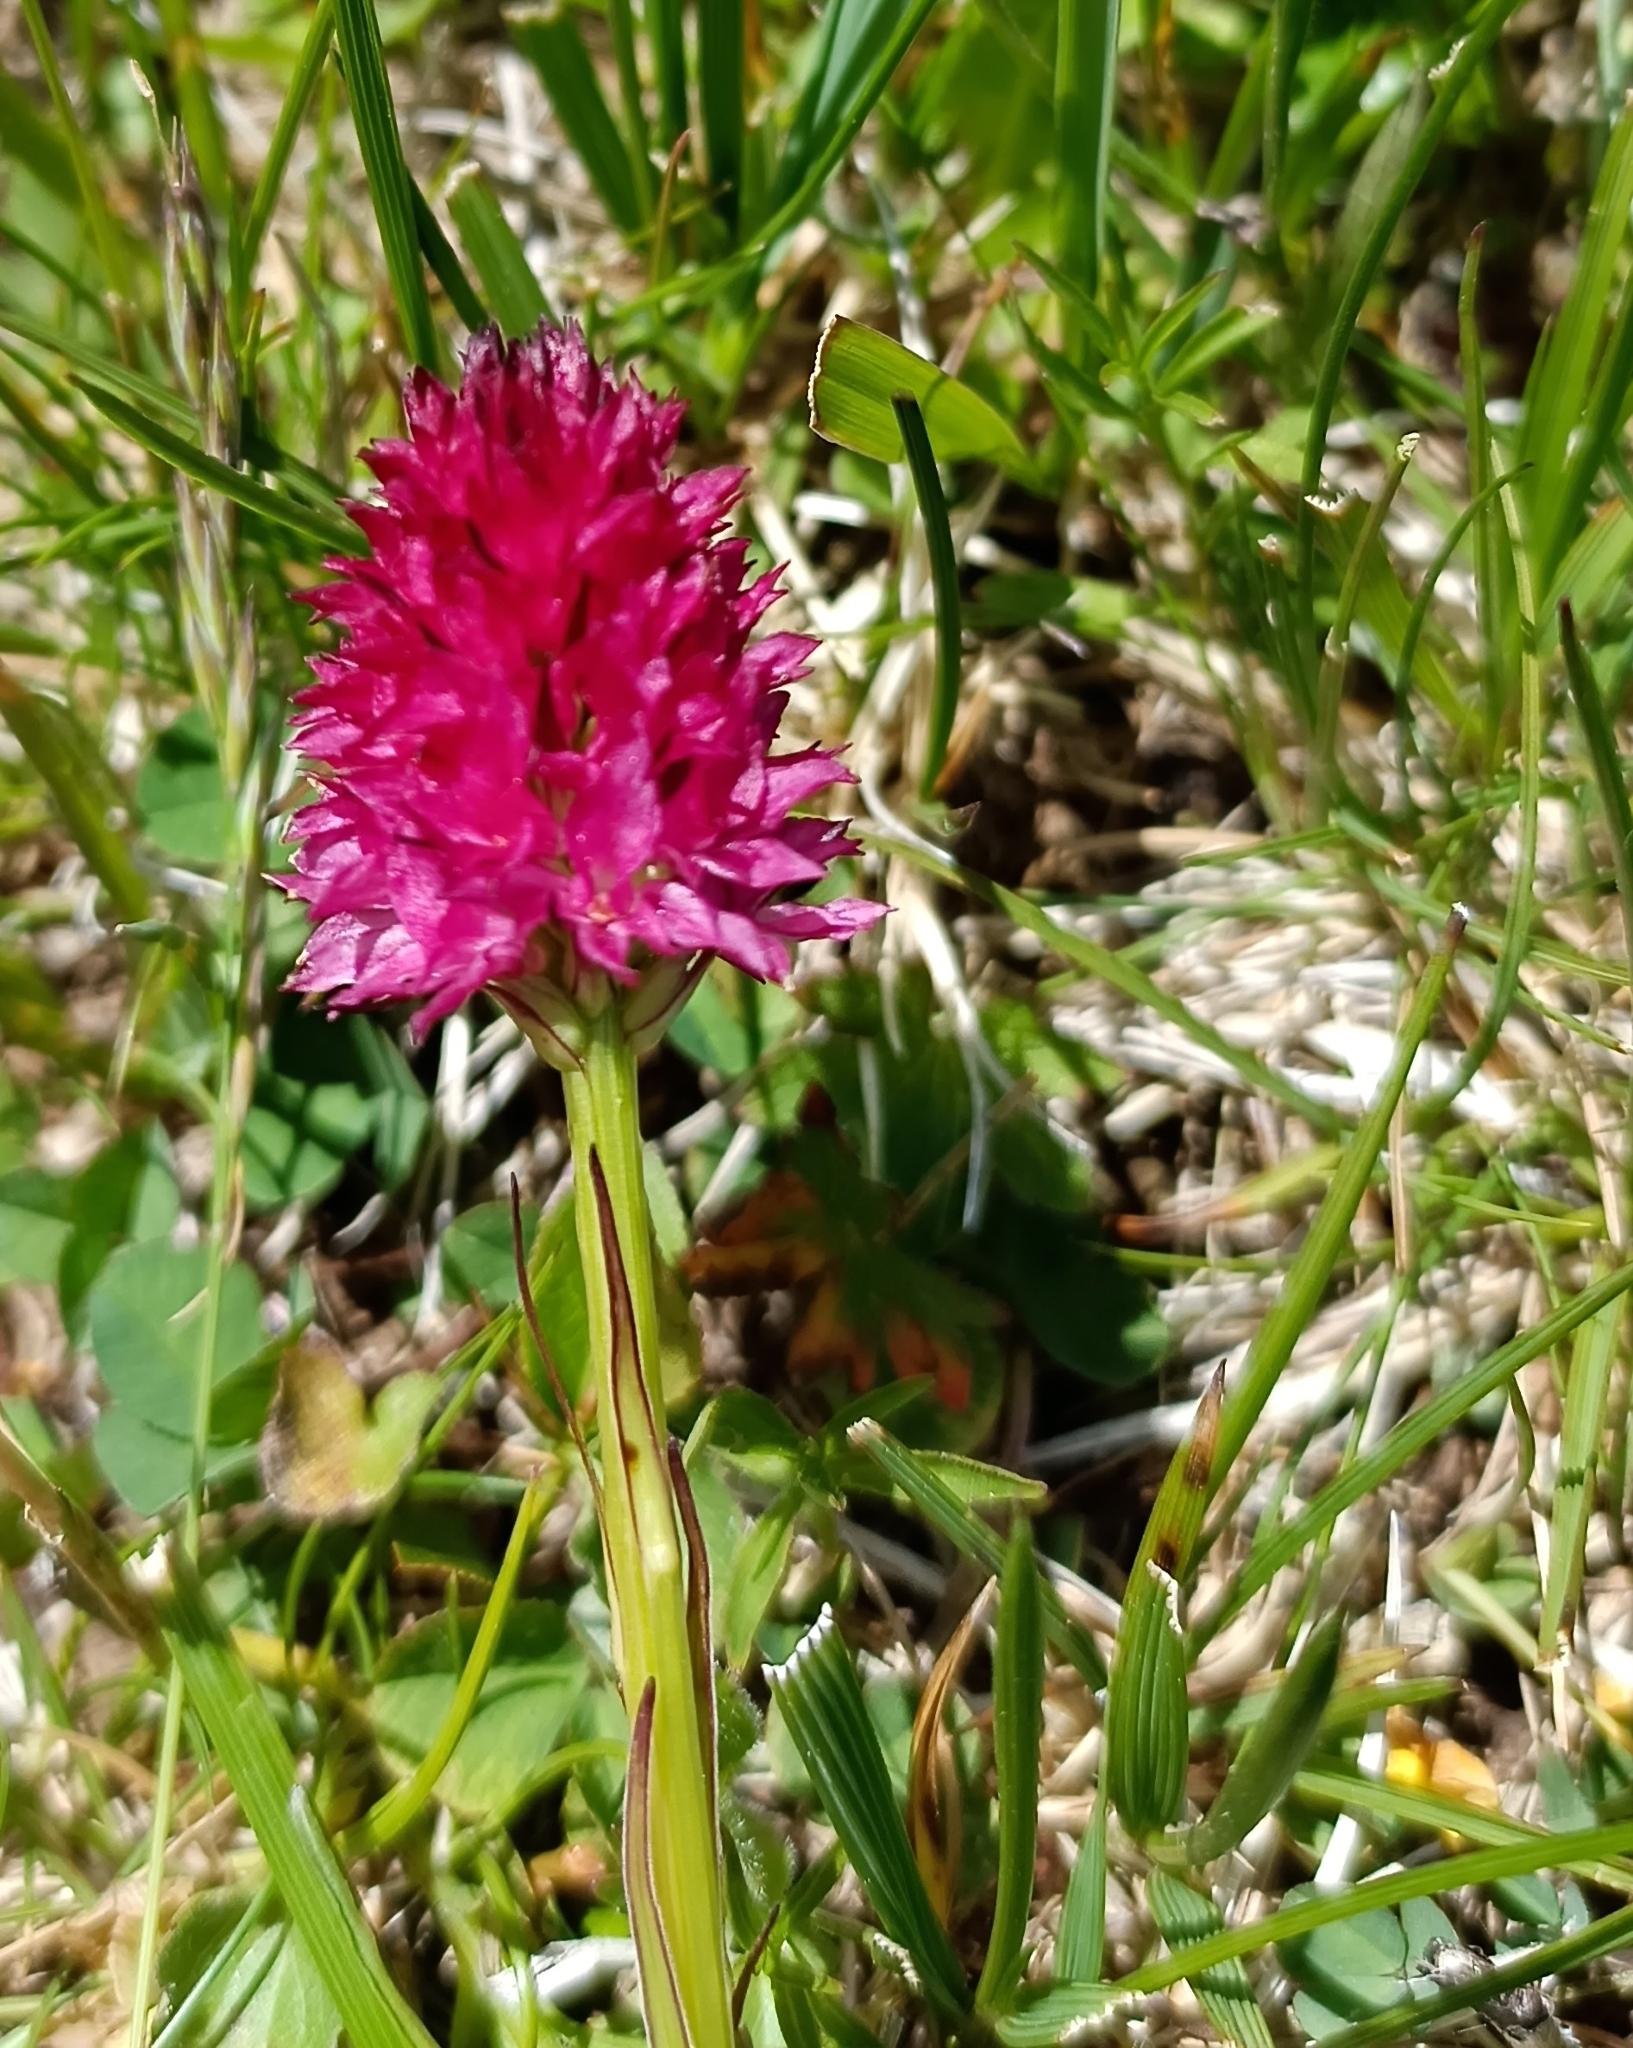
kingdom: Plantae
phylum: Tracheophyta
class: Liliopsida
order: Asparagales
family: Orchidaceae
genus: Gymnadenia
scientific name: Gymnadenia miniata
